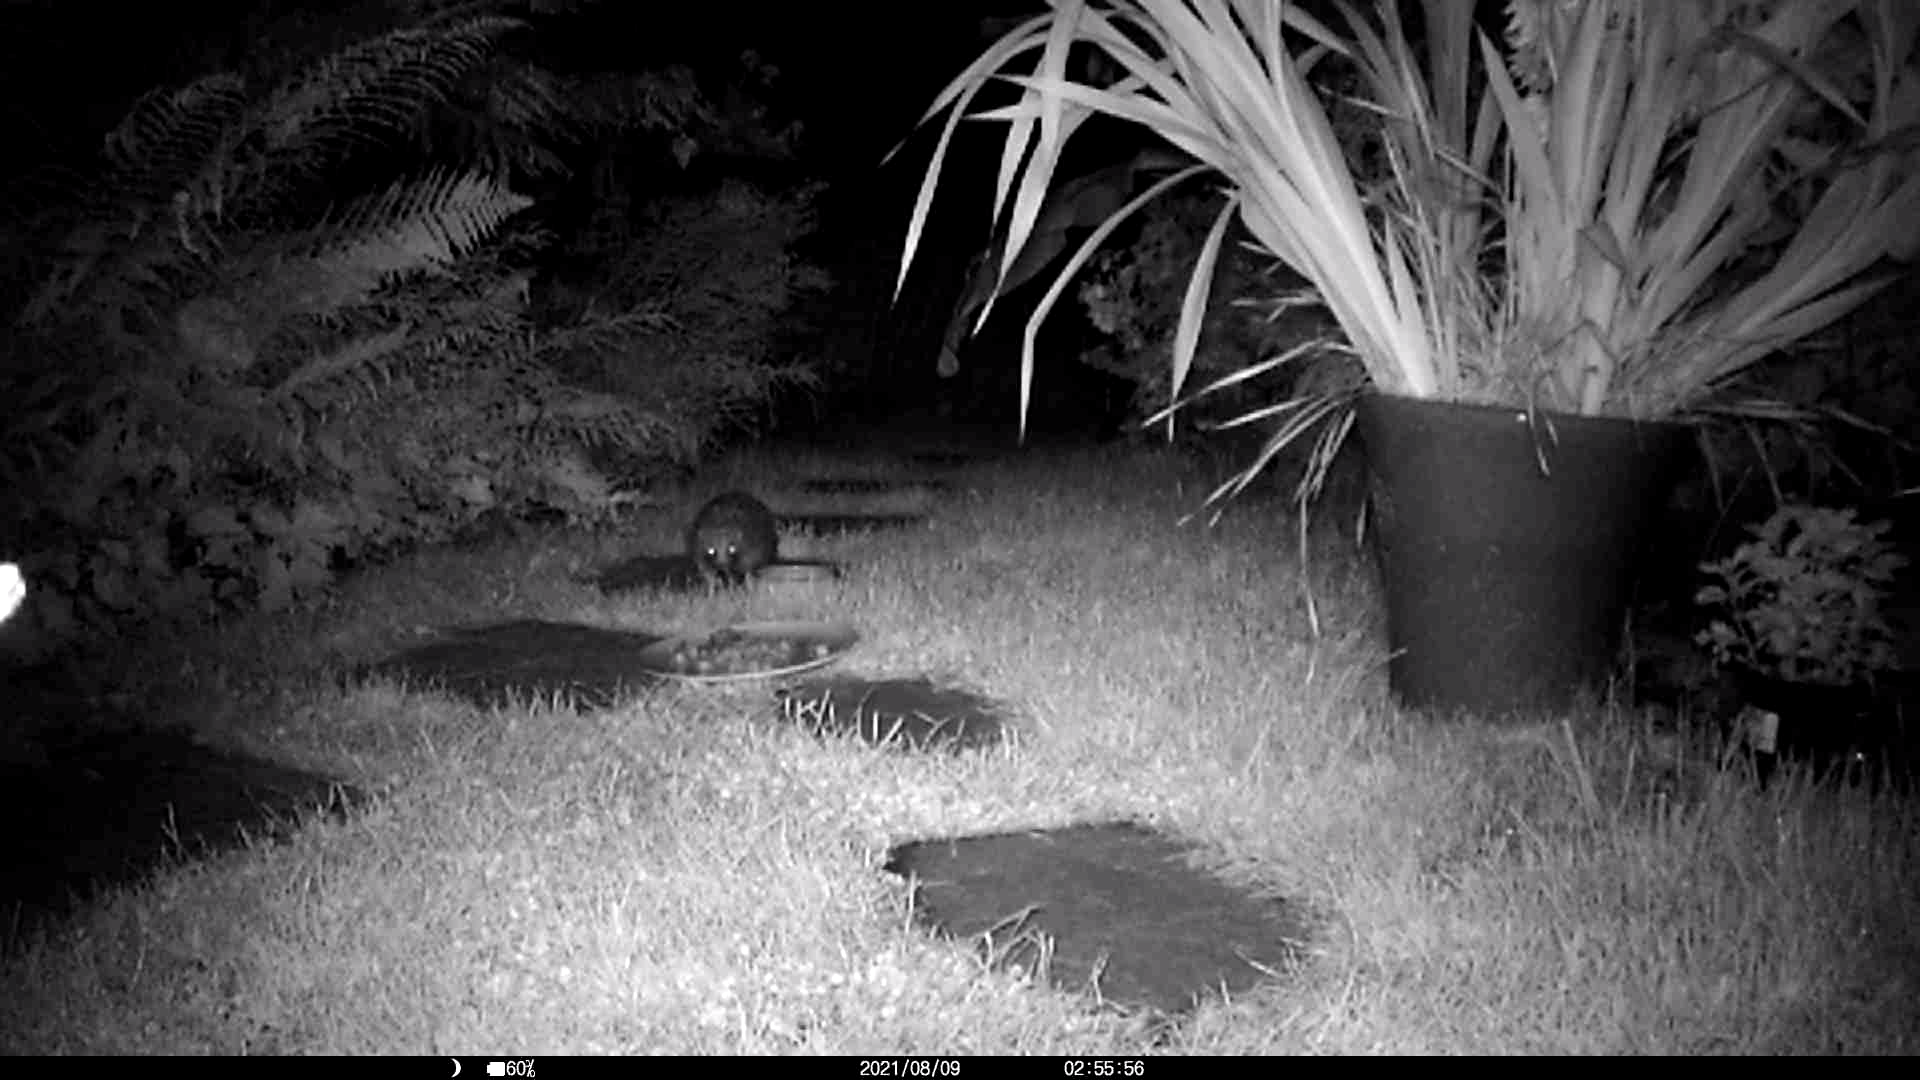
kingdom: Animalia
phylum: Chordata
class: Mammalia
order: Erinaceomorpha
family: Erinaceidae
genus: Erinaceus
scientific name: Erinaceus europaeus
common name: West european hedgehog
